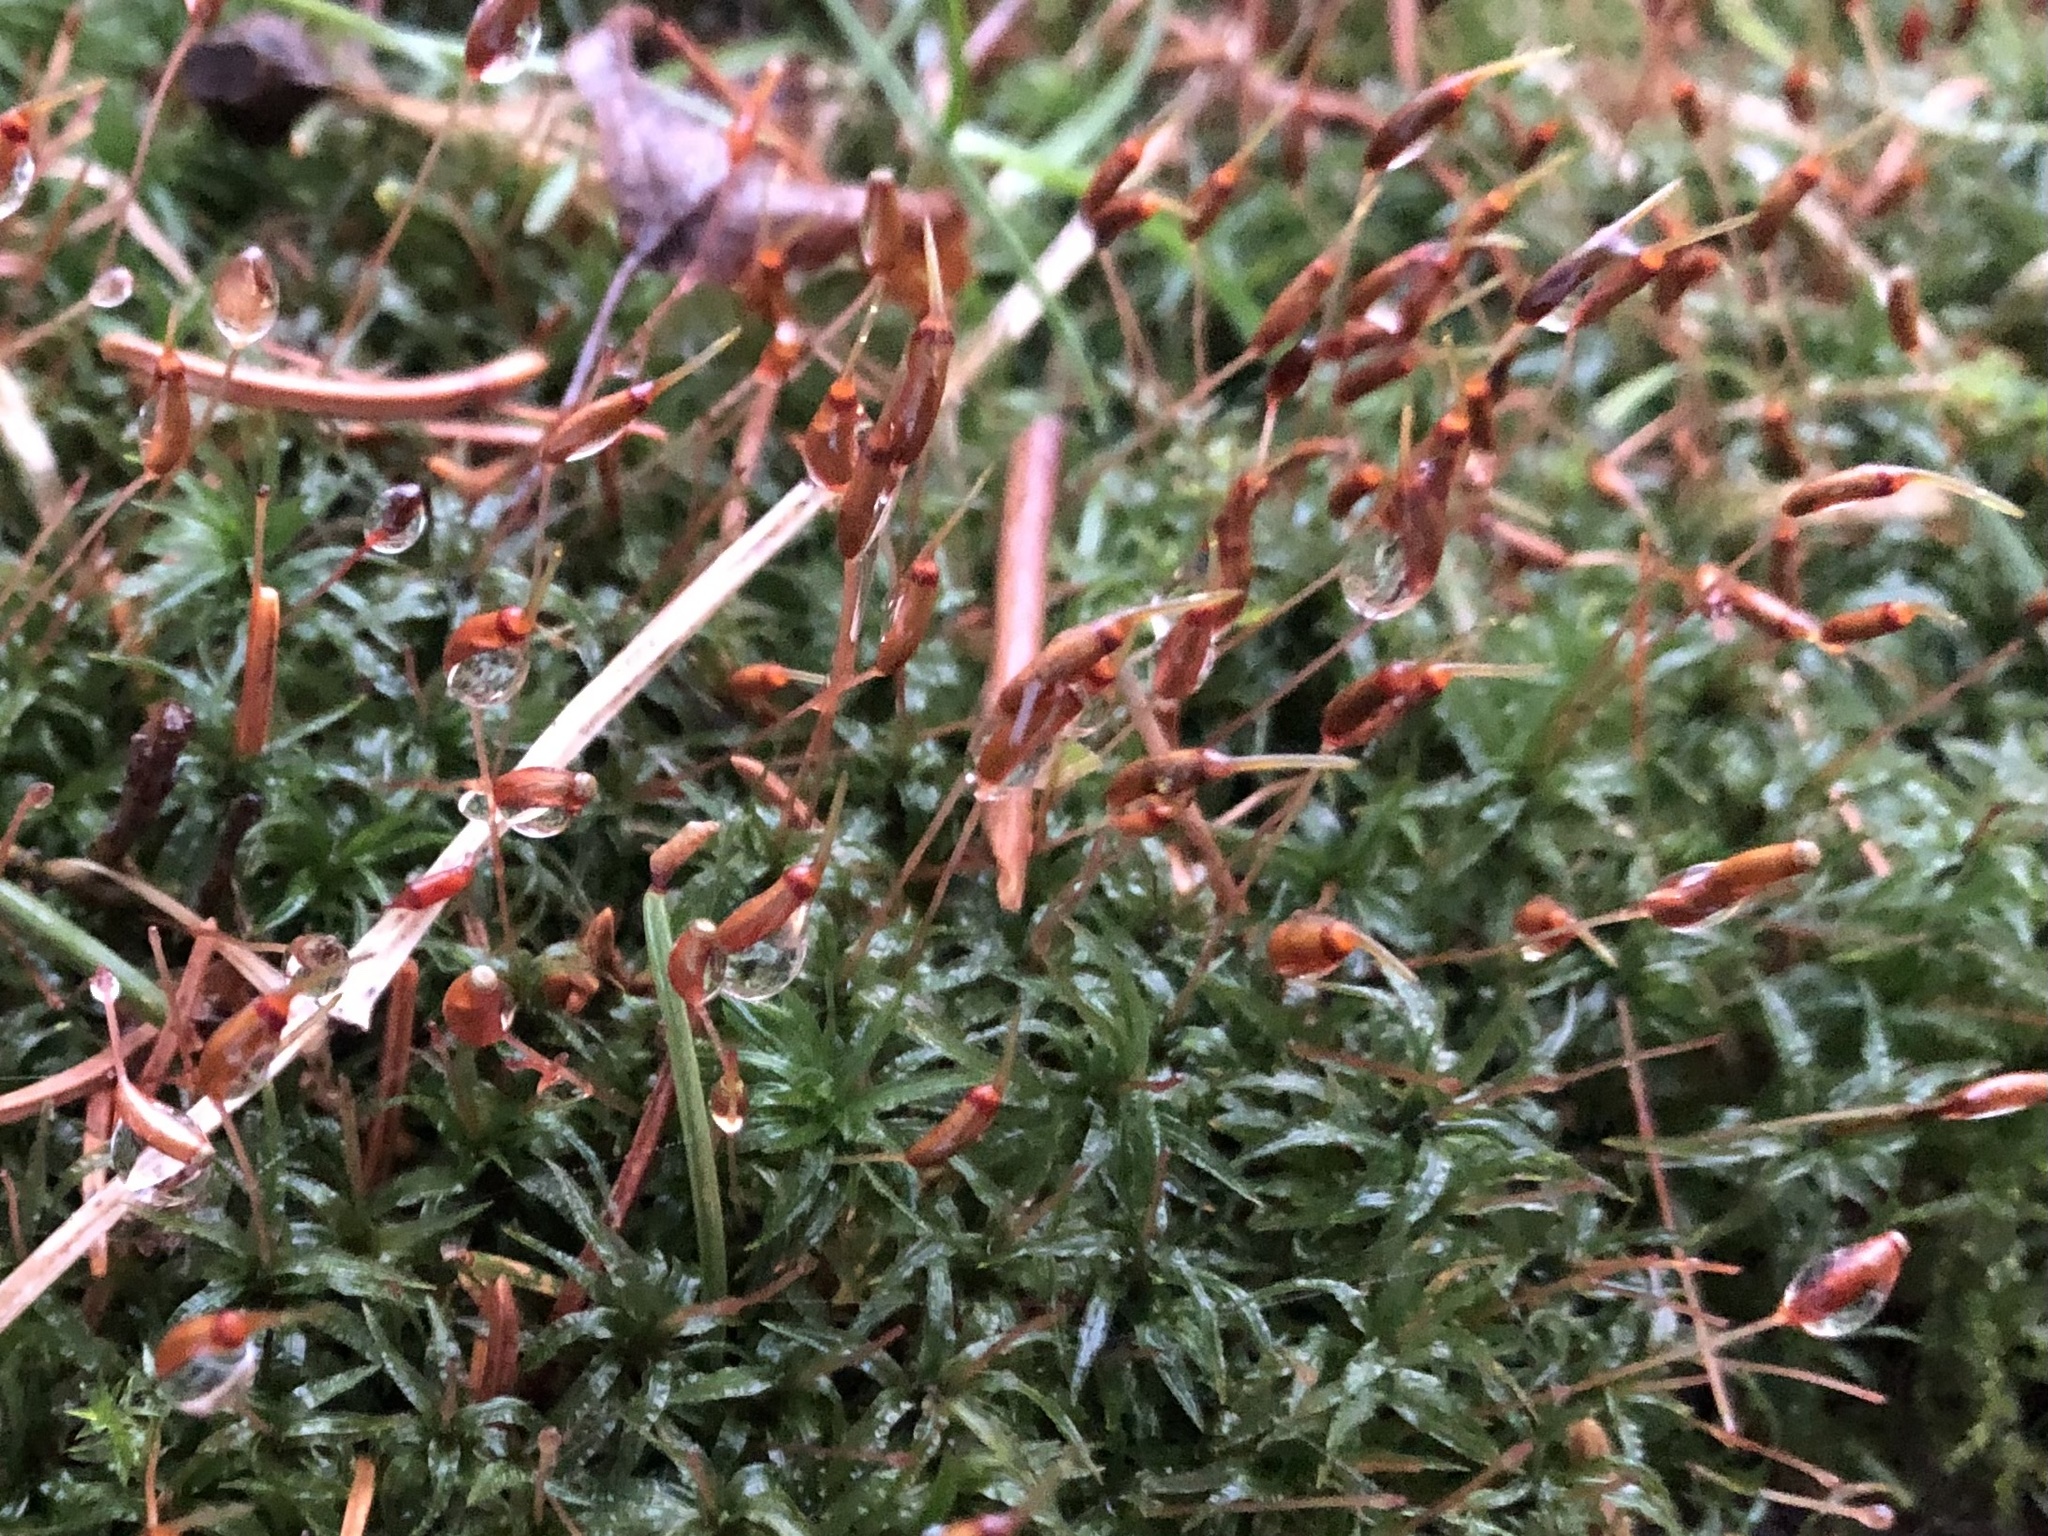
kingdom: Plantae
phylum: Bryophyta
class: Polytrichopsida
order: Polytrichales
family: Polytrichaceae
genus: Atrichum
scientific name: Atrichum undulatum
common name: Common smoothcap
